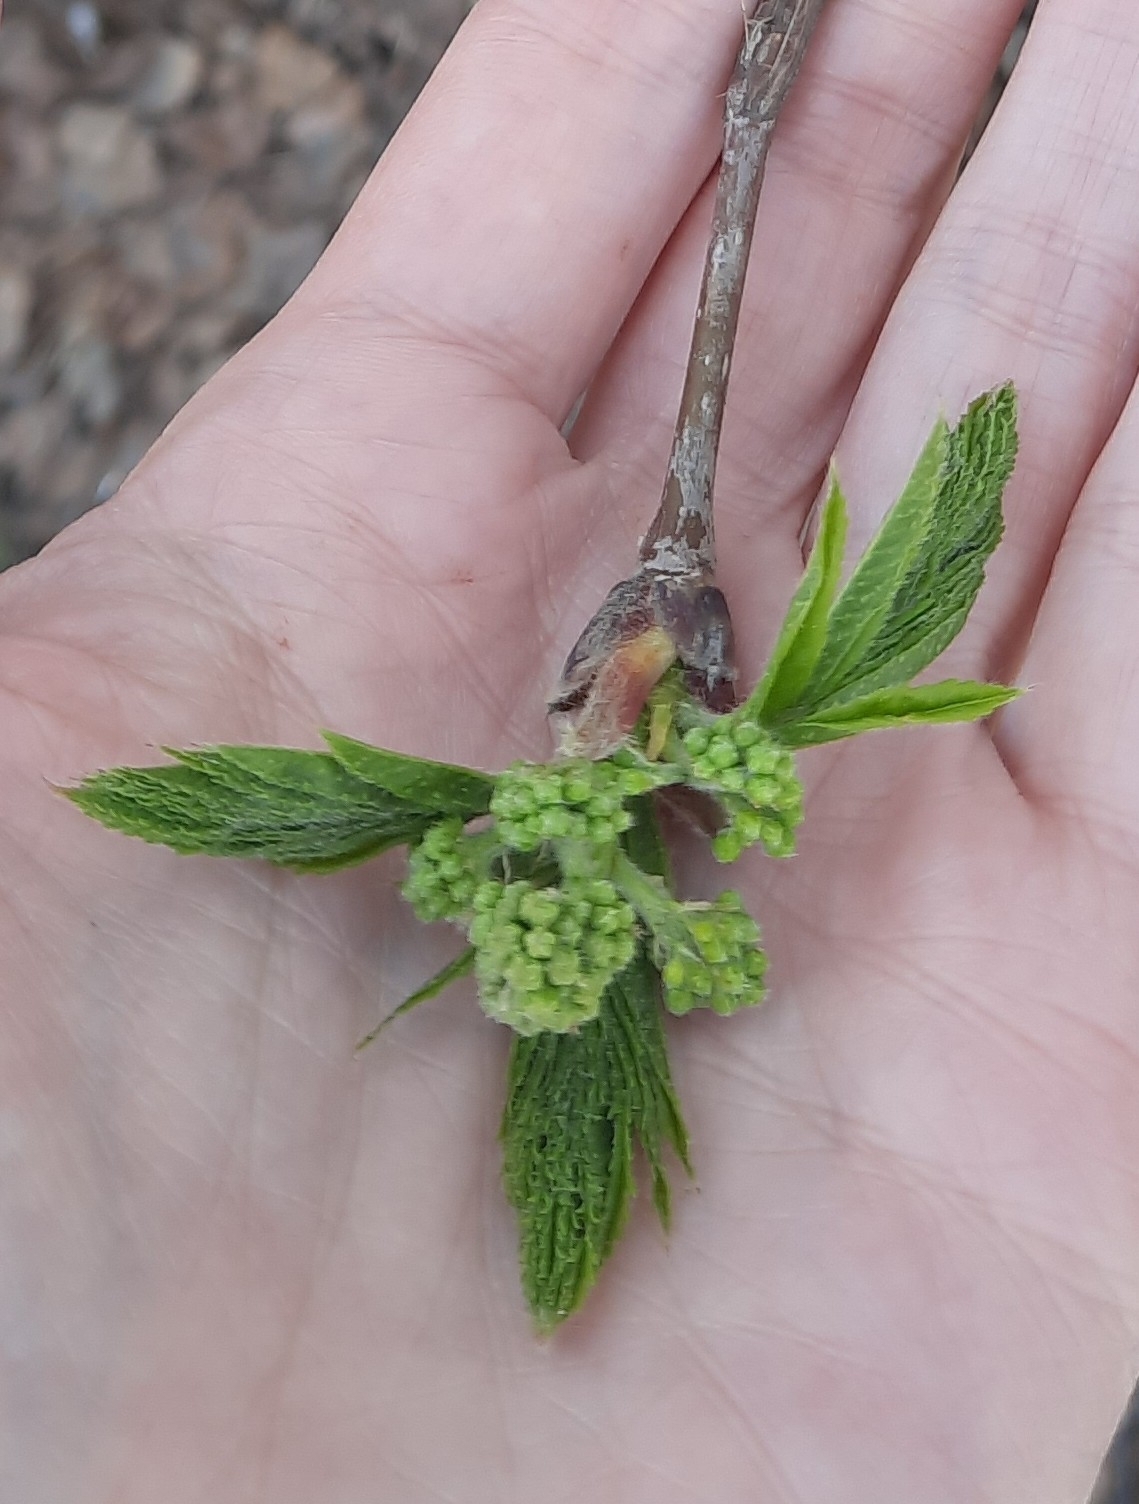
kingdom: Plantae
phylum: Tracheophyta
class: Magnoliopsida
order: Rosales
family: Rosaceae
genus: Sorbus
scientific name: Sorbus aucuparia
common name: Rowan
